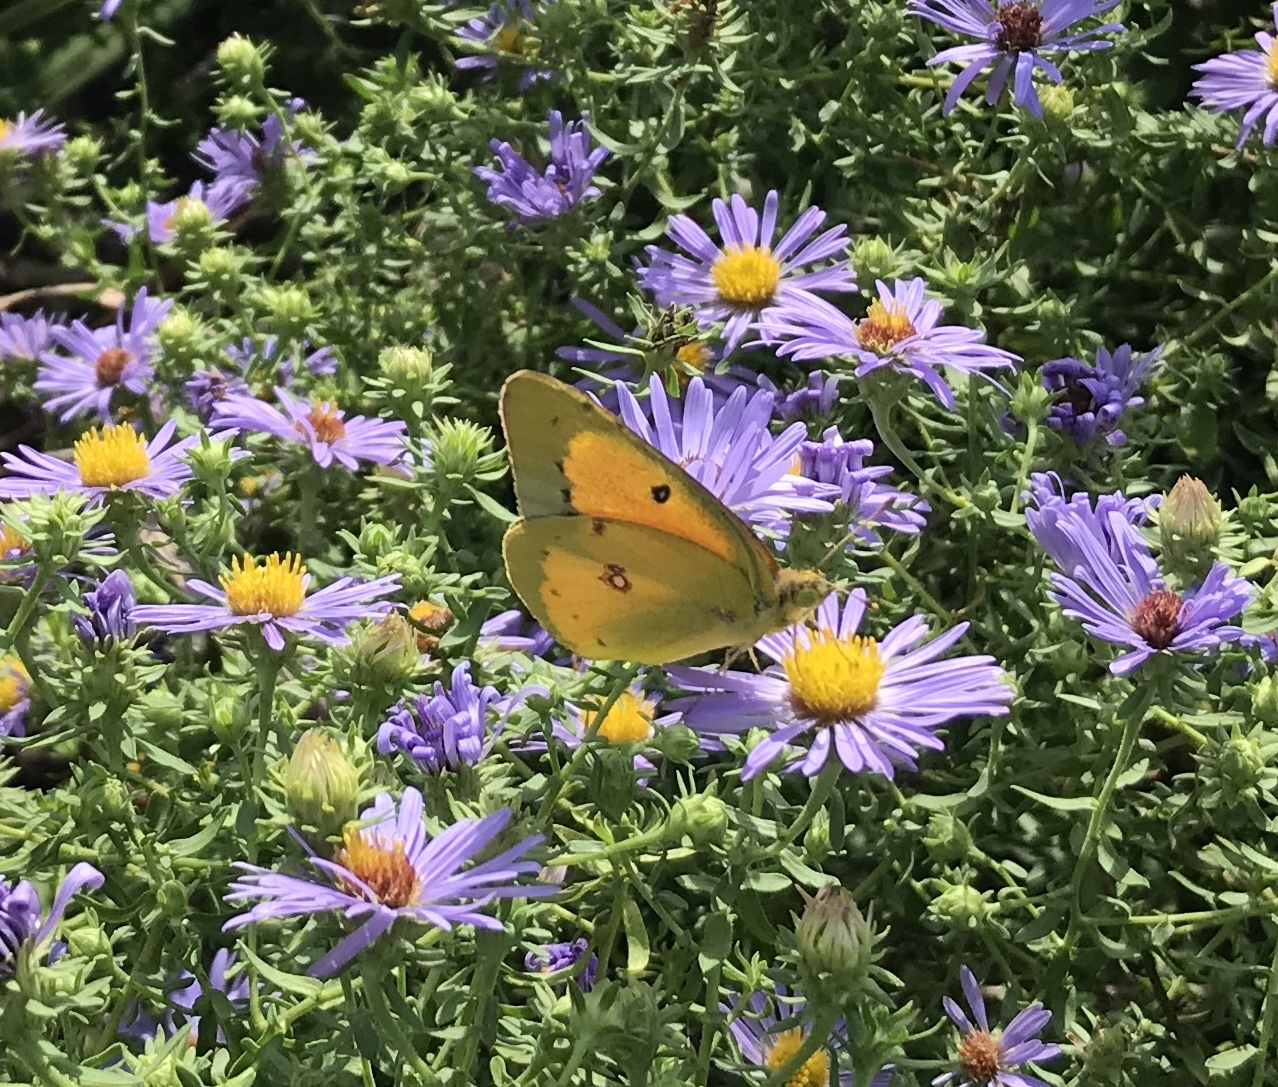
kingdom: Animalia
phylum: Arthropoda
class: Insecta
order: Lepidoptera
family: Pieridae
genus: Colias
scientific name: Colias eurytheme
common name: Alfalfa butterfly
